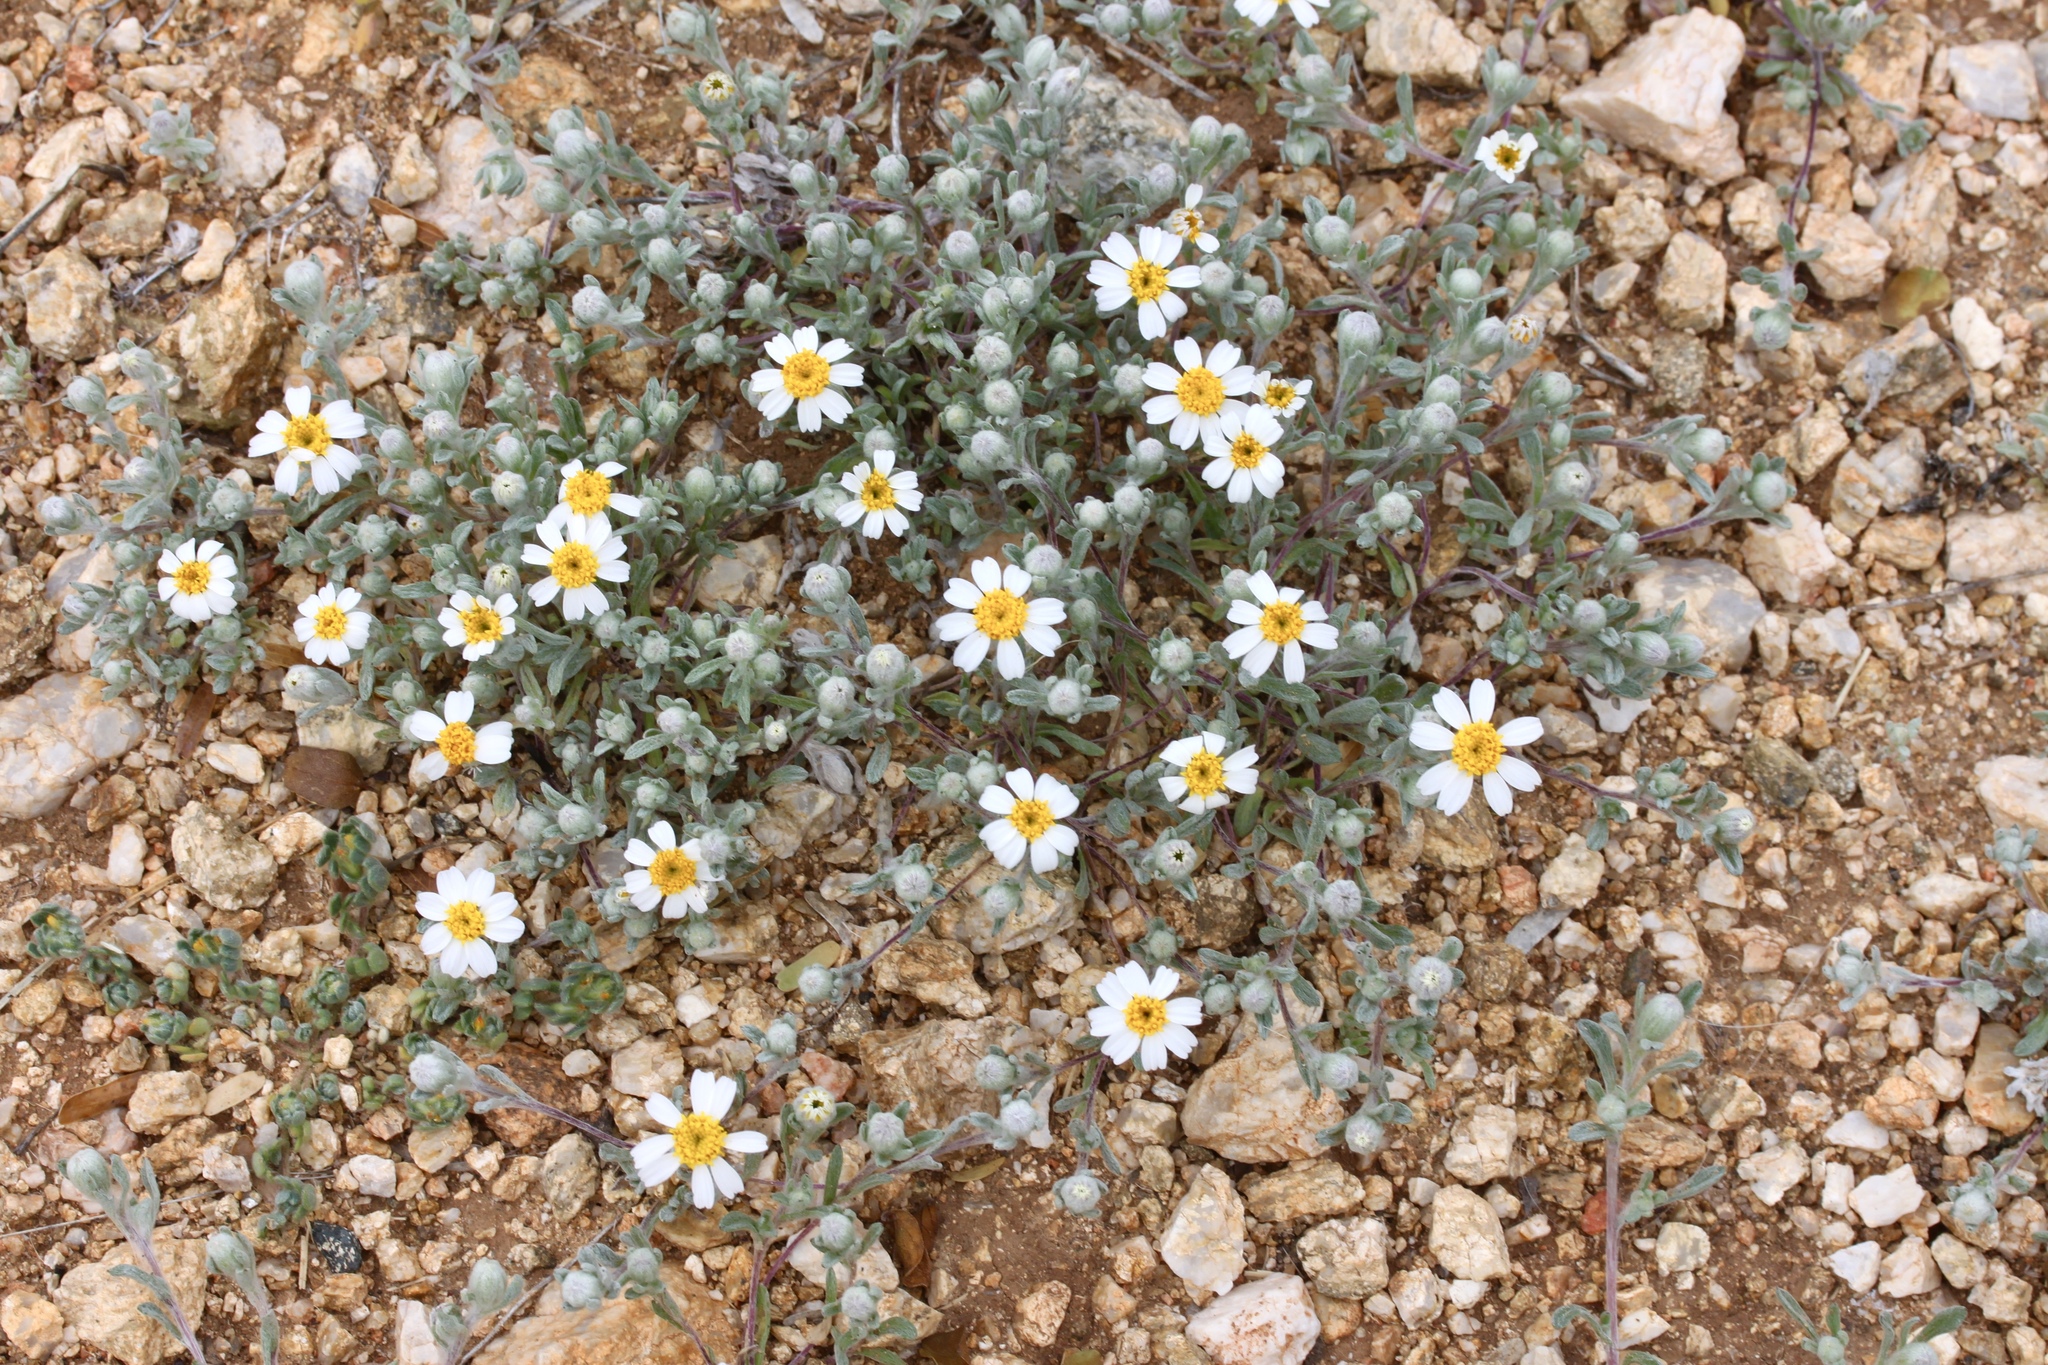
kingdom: Plantae
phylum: Tracheophyta
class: Magnoliopsida
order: Asterales
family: Asteraceae
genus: Eriophyllum
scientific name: Eriophyllum lanosum
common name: White easter-bonnets
